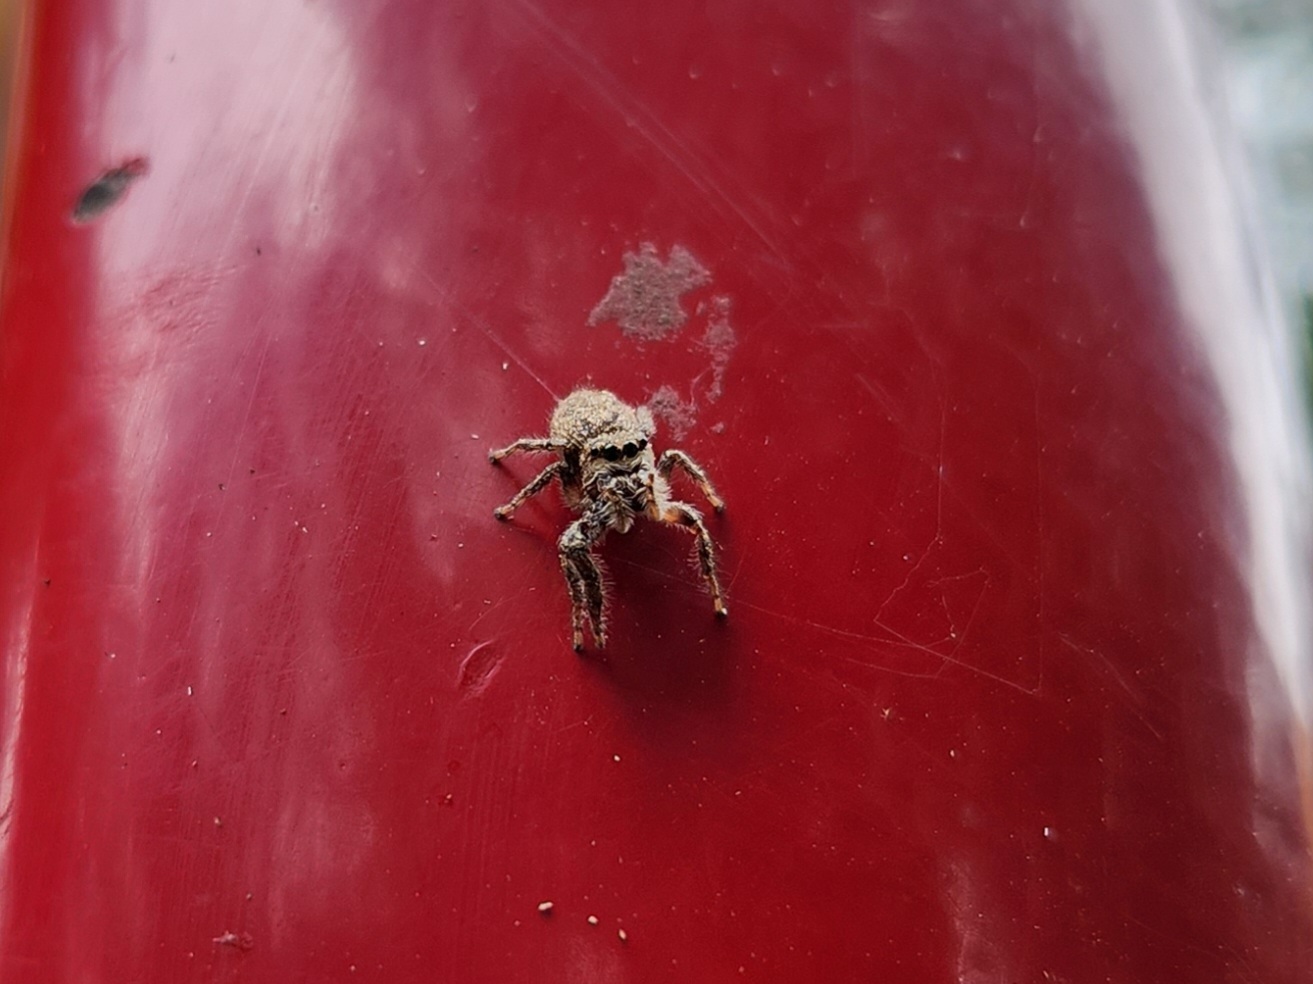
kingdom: Animalia
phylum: Arthropoda
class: Arachnida
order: Araneae
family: Salticidae
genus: Eris
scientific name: Eris militaris
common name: Bronze jumper
